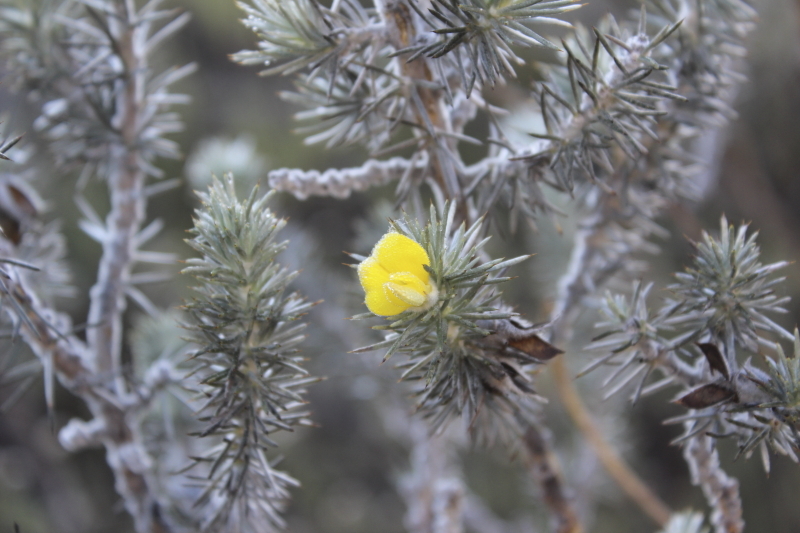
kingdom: Plantae
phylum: Tracheophyta
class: Magnoliopsida
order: Fabales
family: Fabaceae
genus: Aspalathus
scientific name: Aspalathus hystrix
